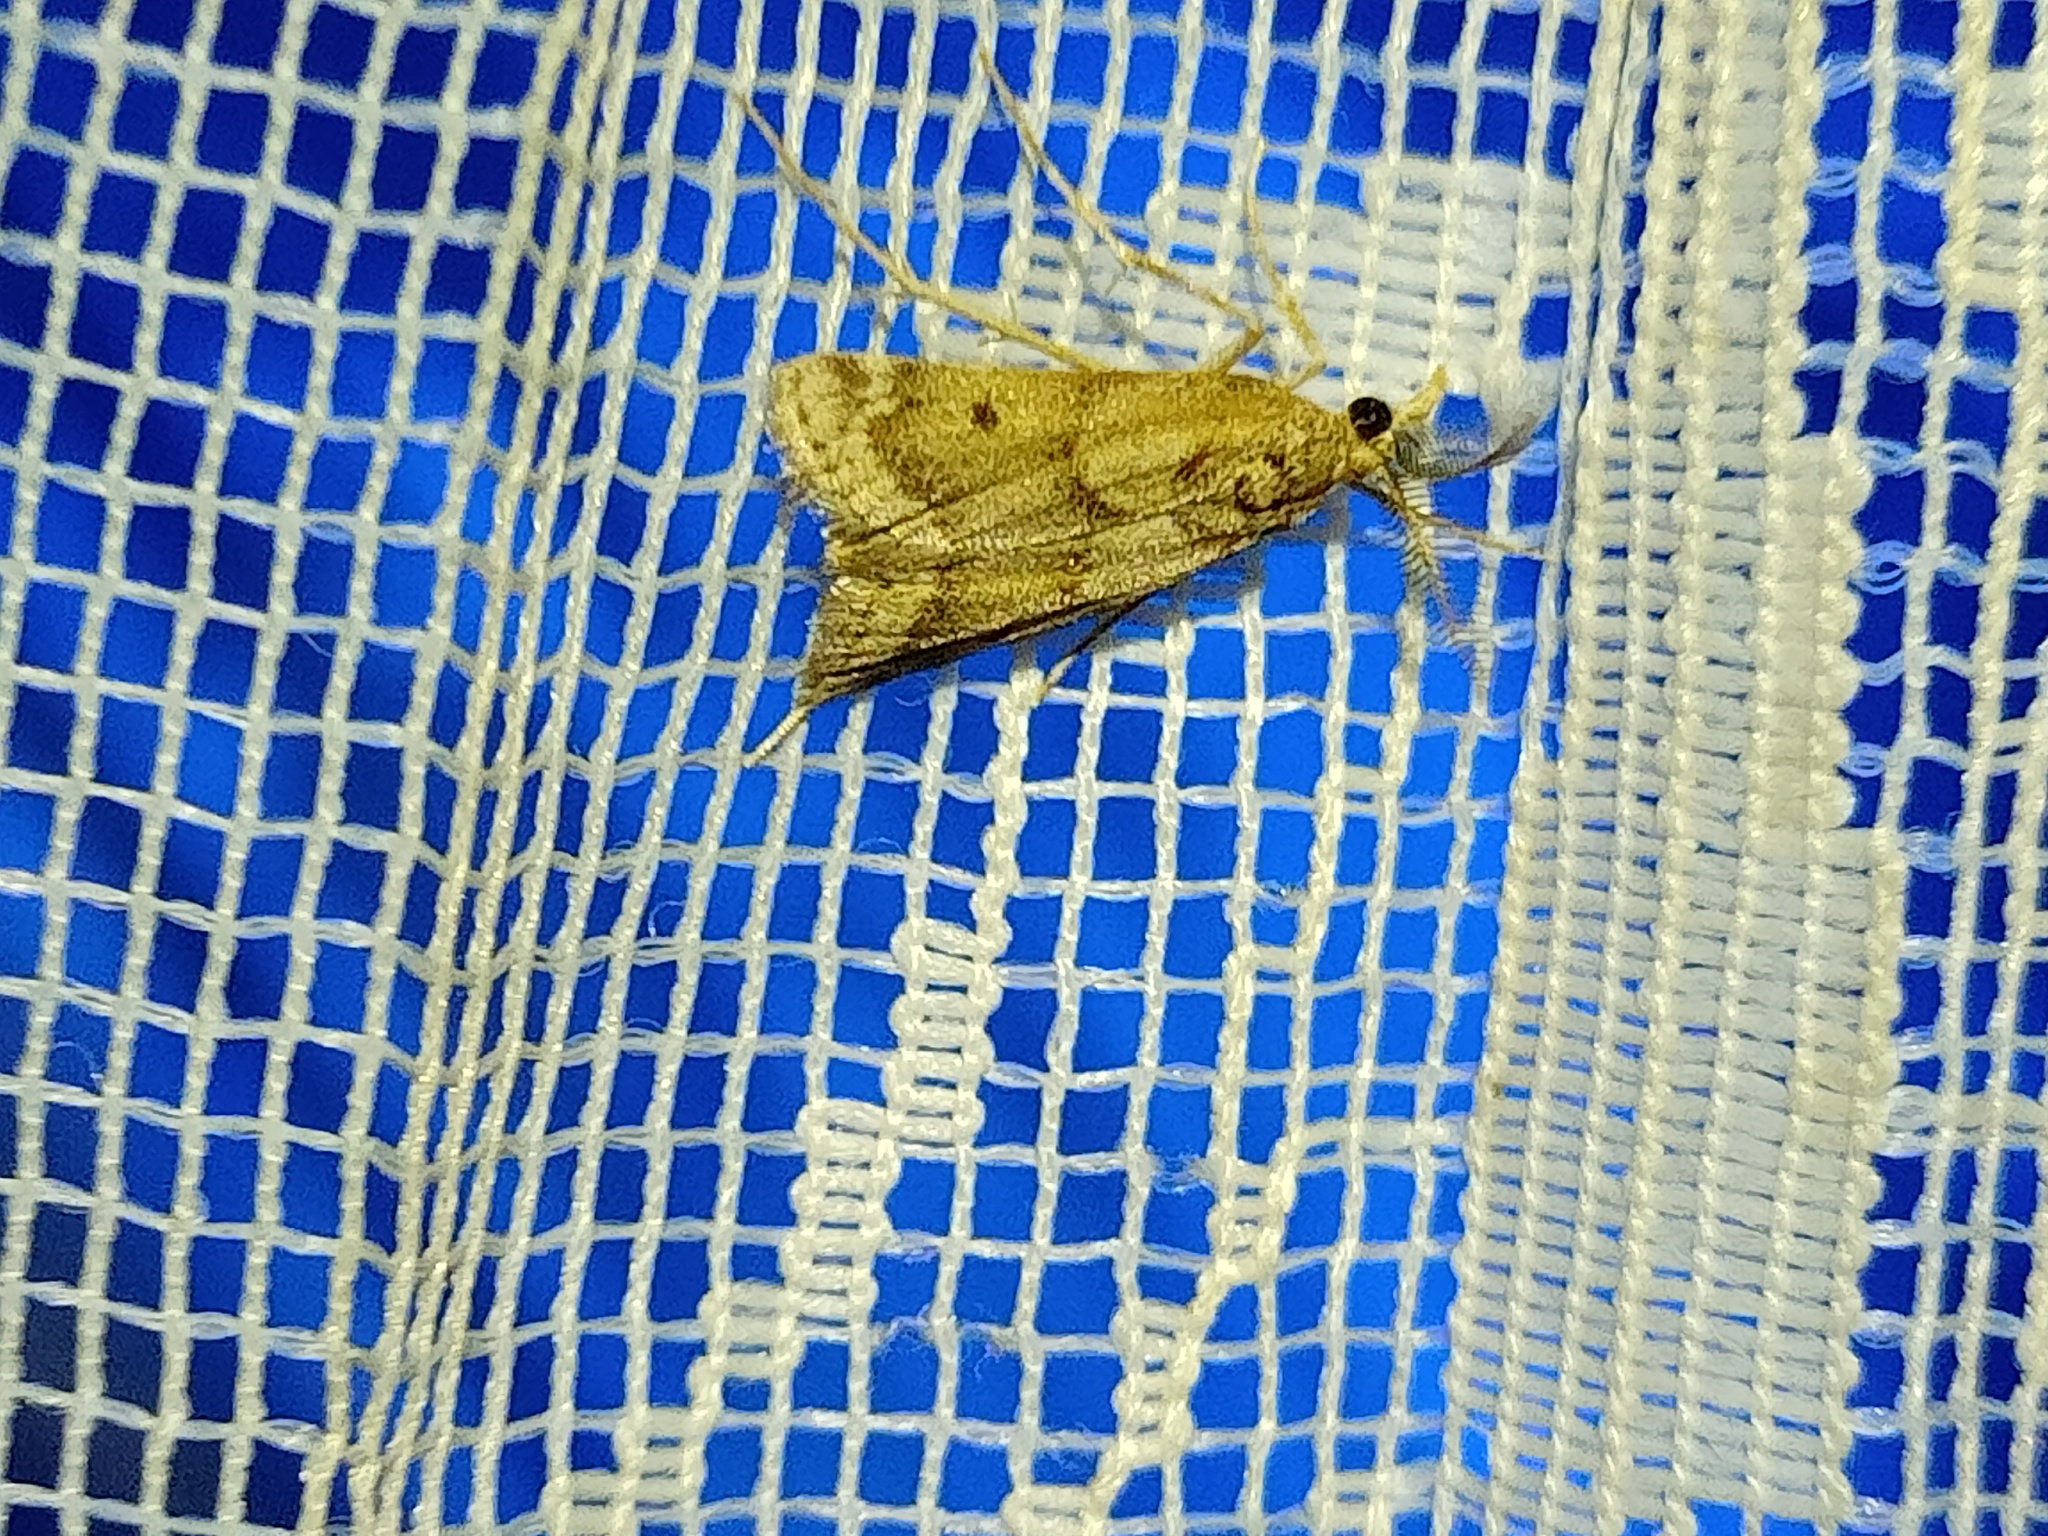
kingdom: Animalia
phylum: Arthropoda
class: Insecta
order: Lepidoptera
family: Crambidae
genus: Prionapteryx
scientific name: Prionapteryx lancerotella
